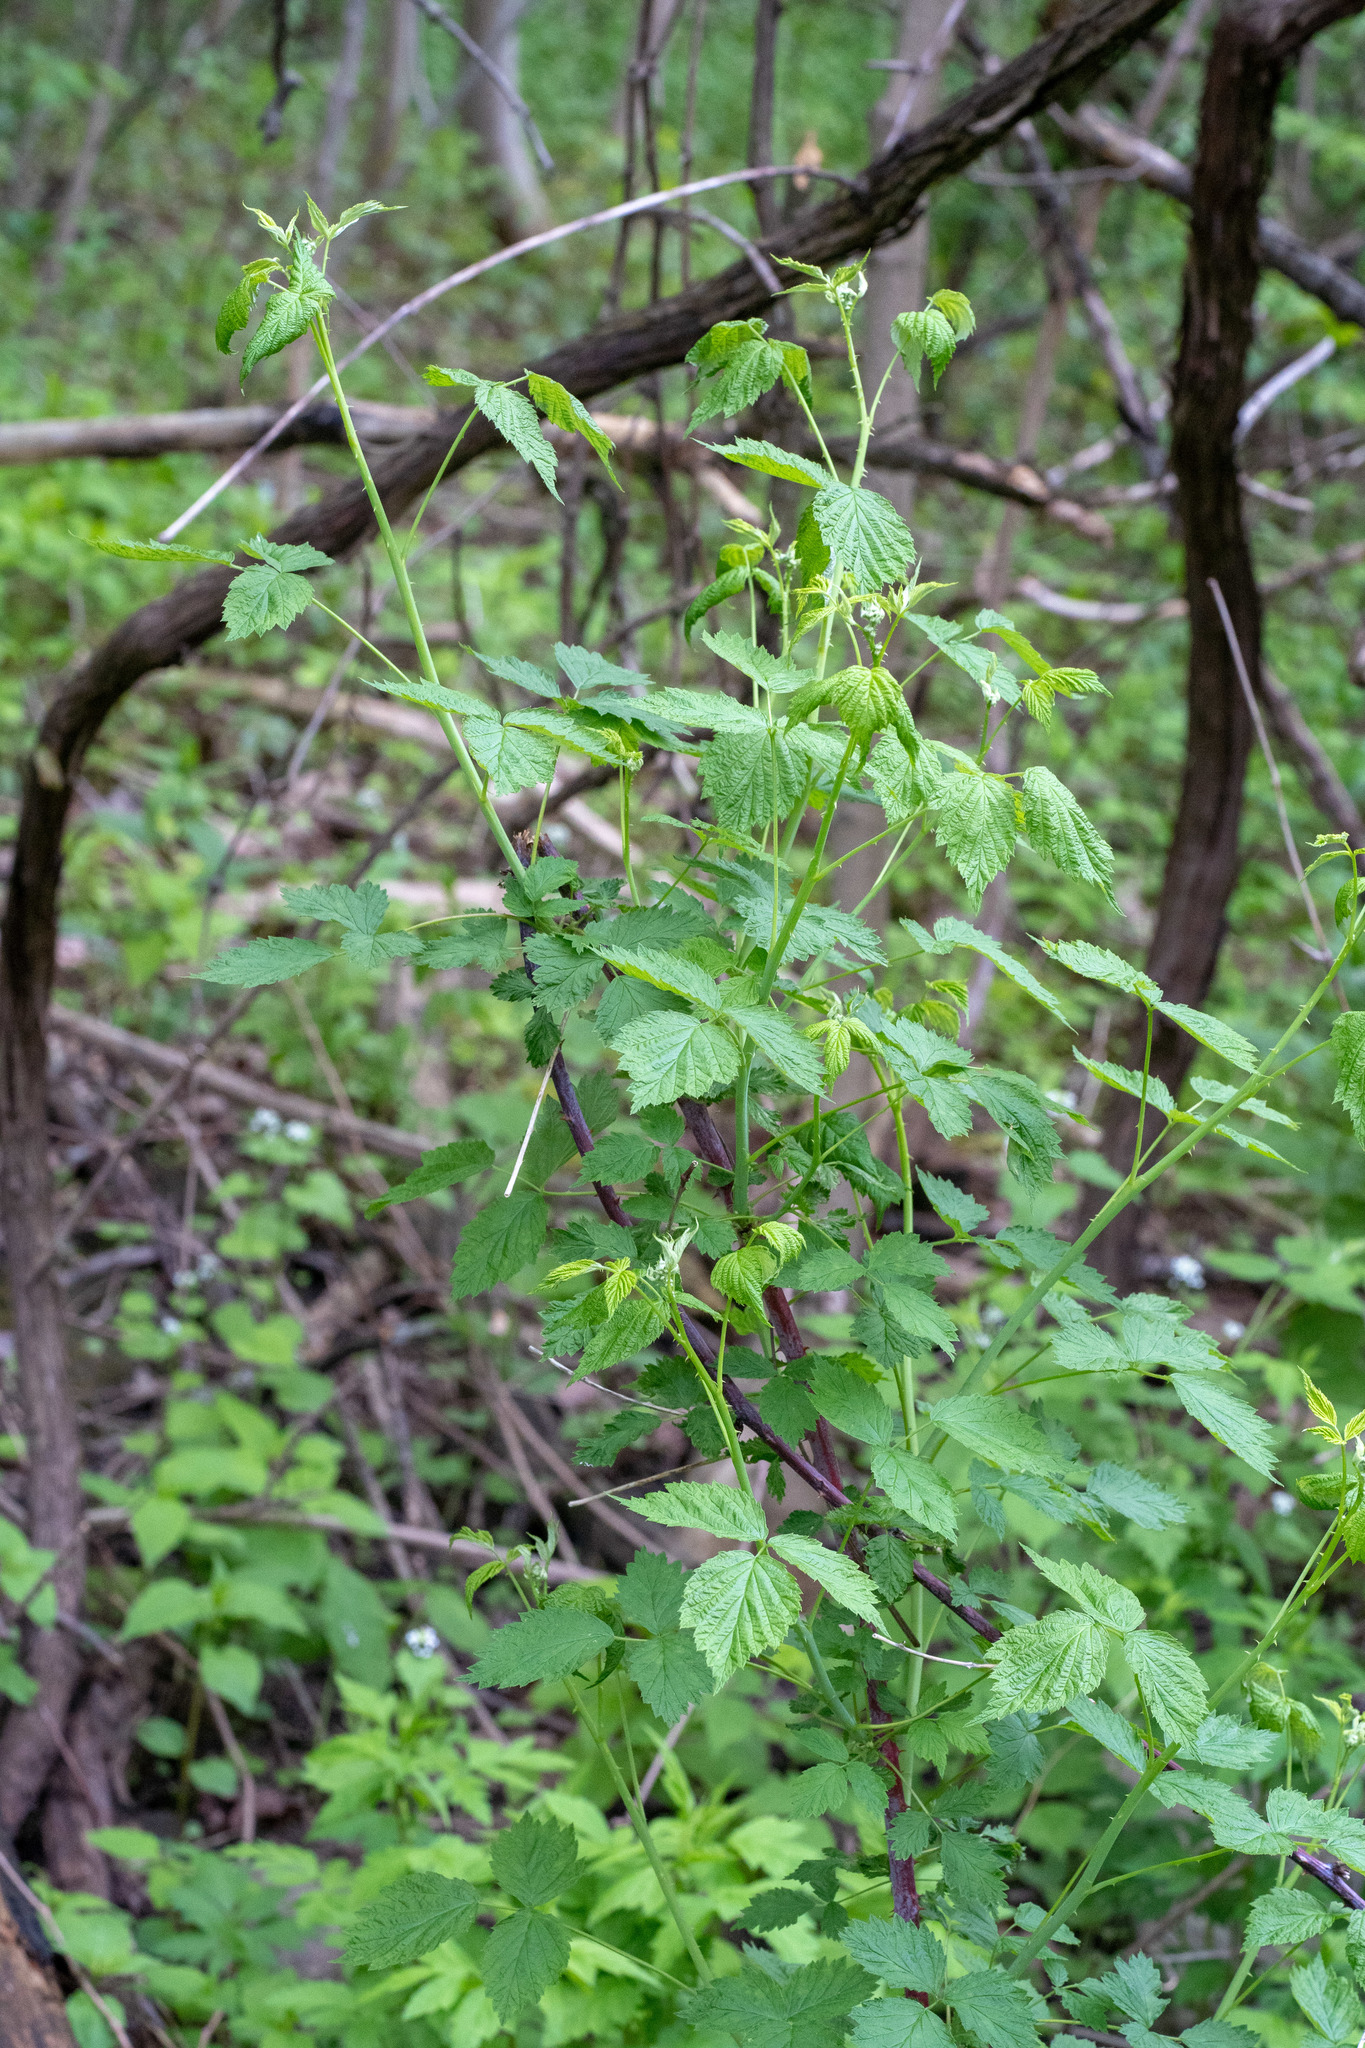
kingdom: Plantae
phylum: Tracheophyta
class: Magnoliopsida
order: Rosales
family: Rosaceae
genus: Rubus
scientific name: Rubus occidentalis
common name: Black raspberry
